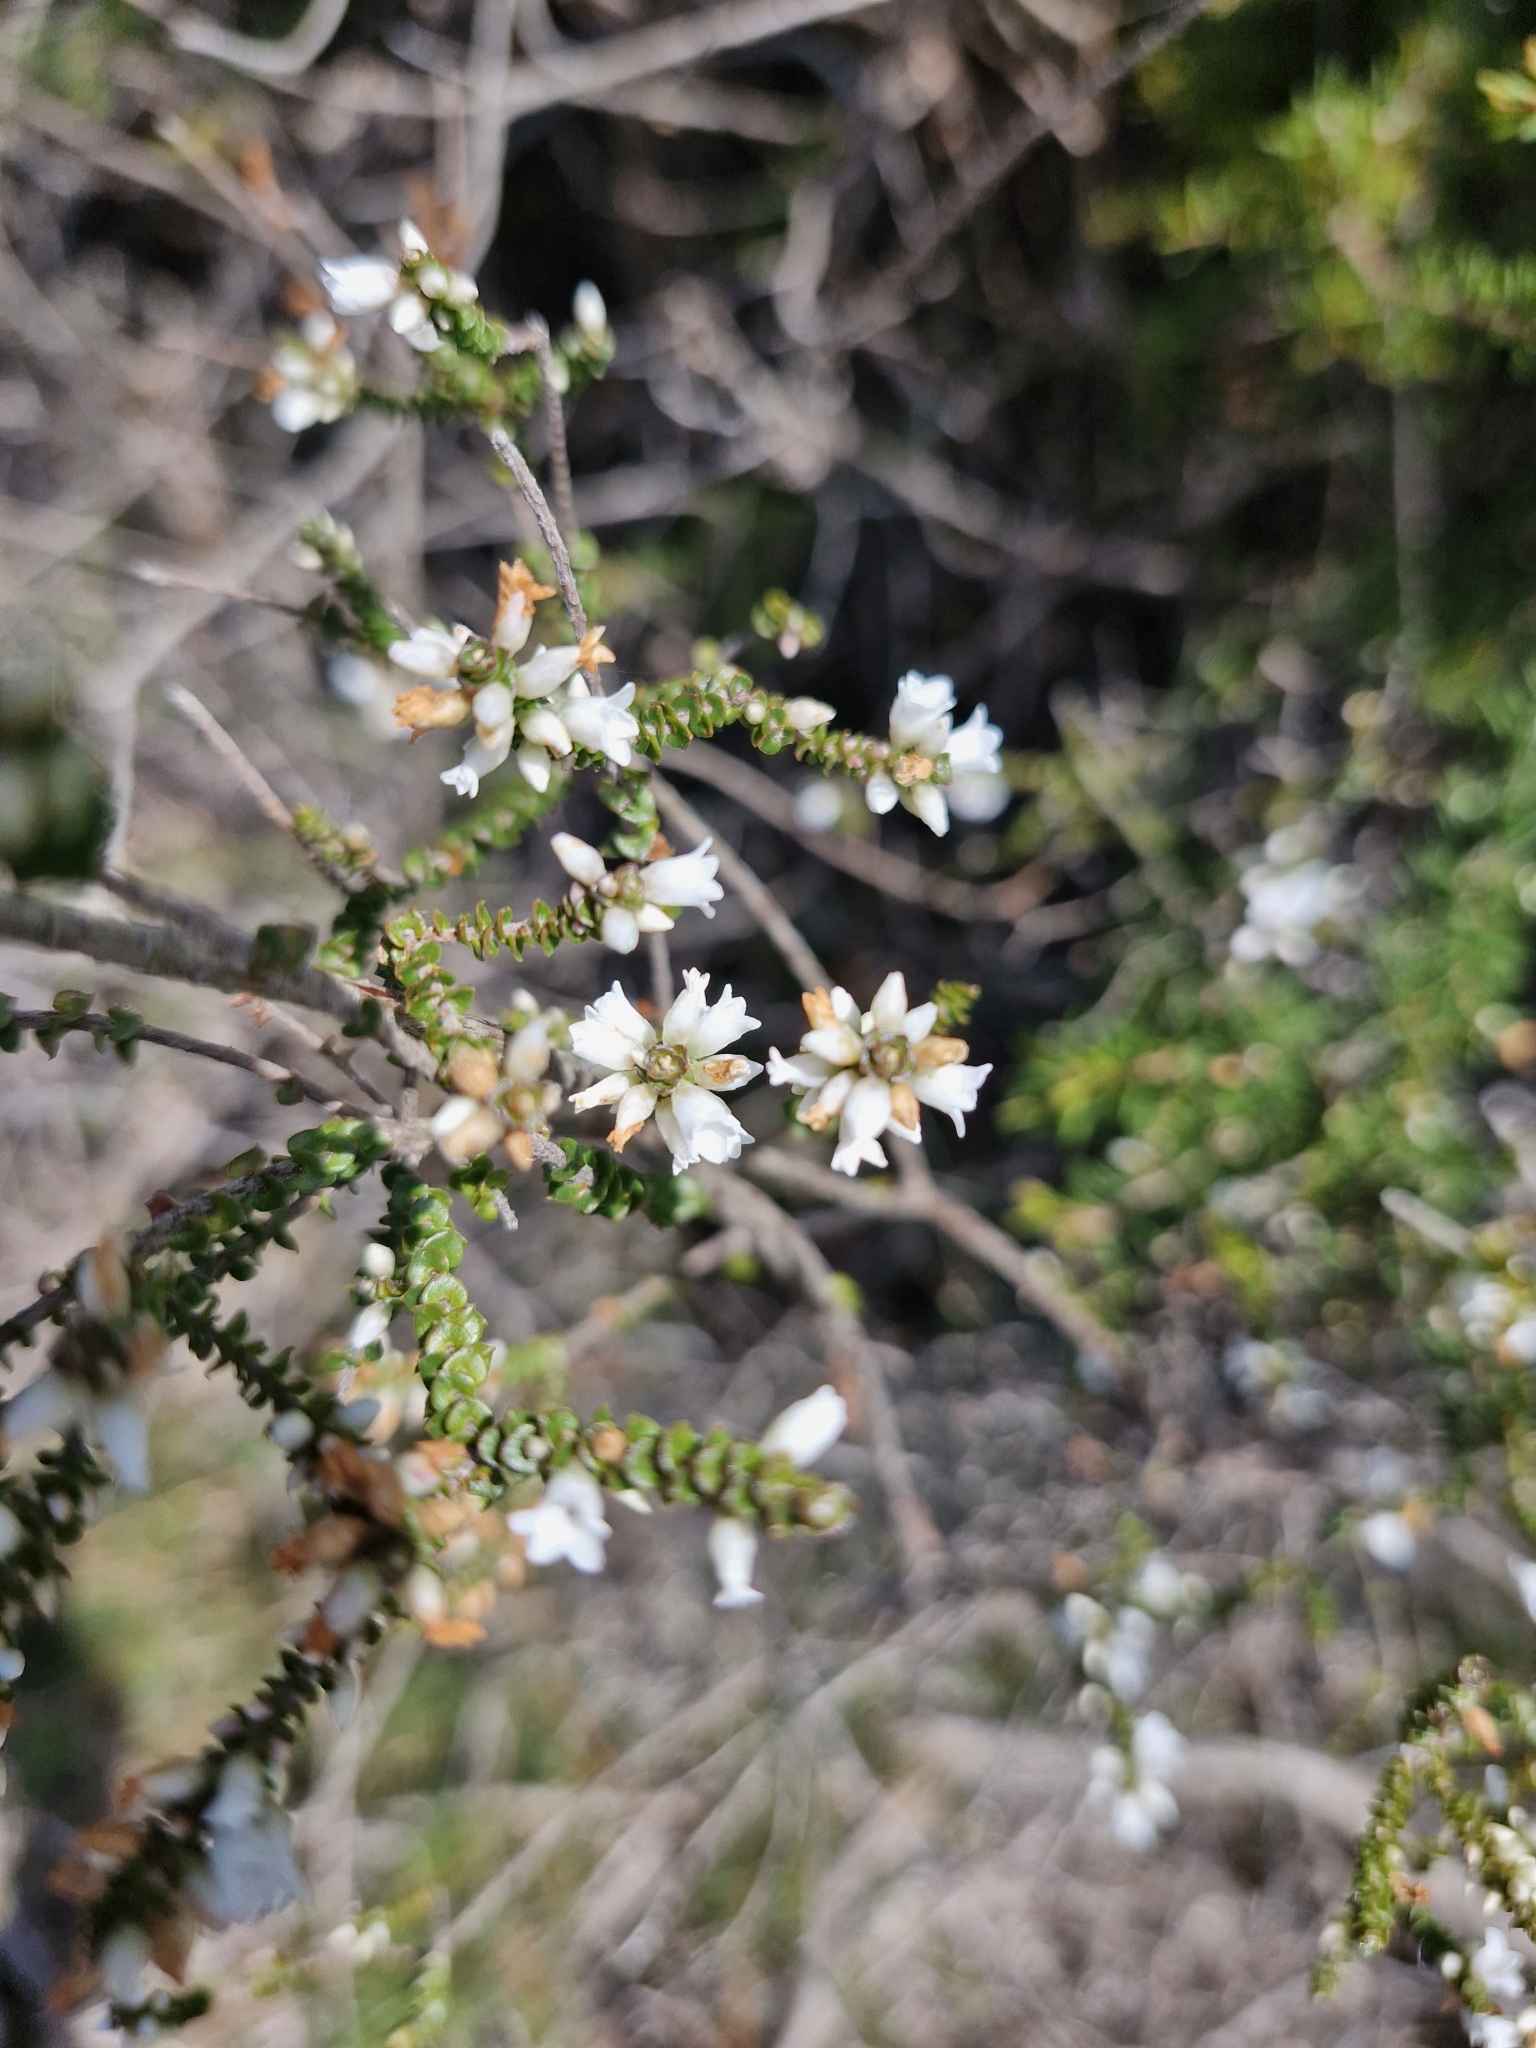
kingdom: Plantae
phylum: Tracheophyta
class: Magnoliopsida
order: Ericales
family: Ericaceae
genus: Epacris
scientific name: Epacris microphylla
